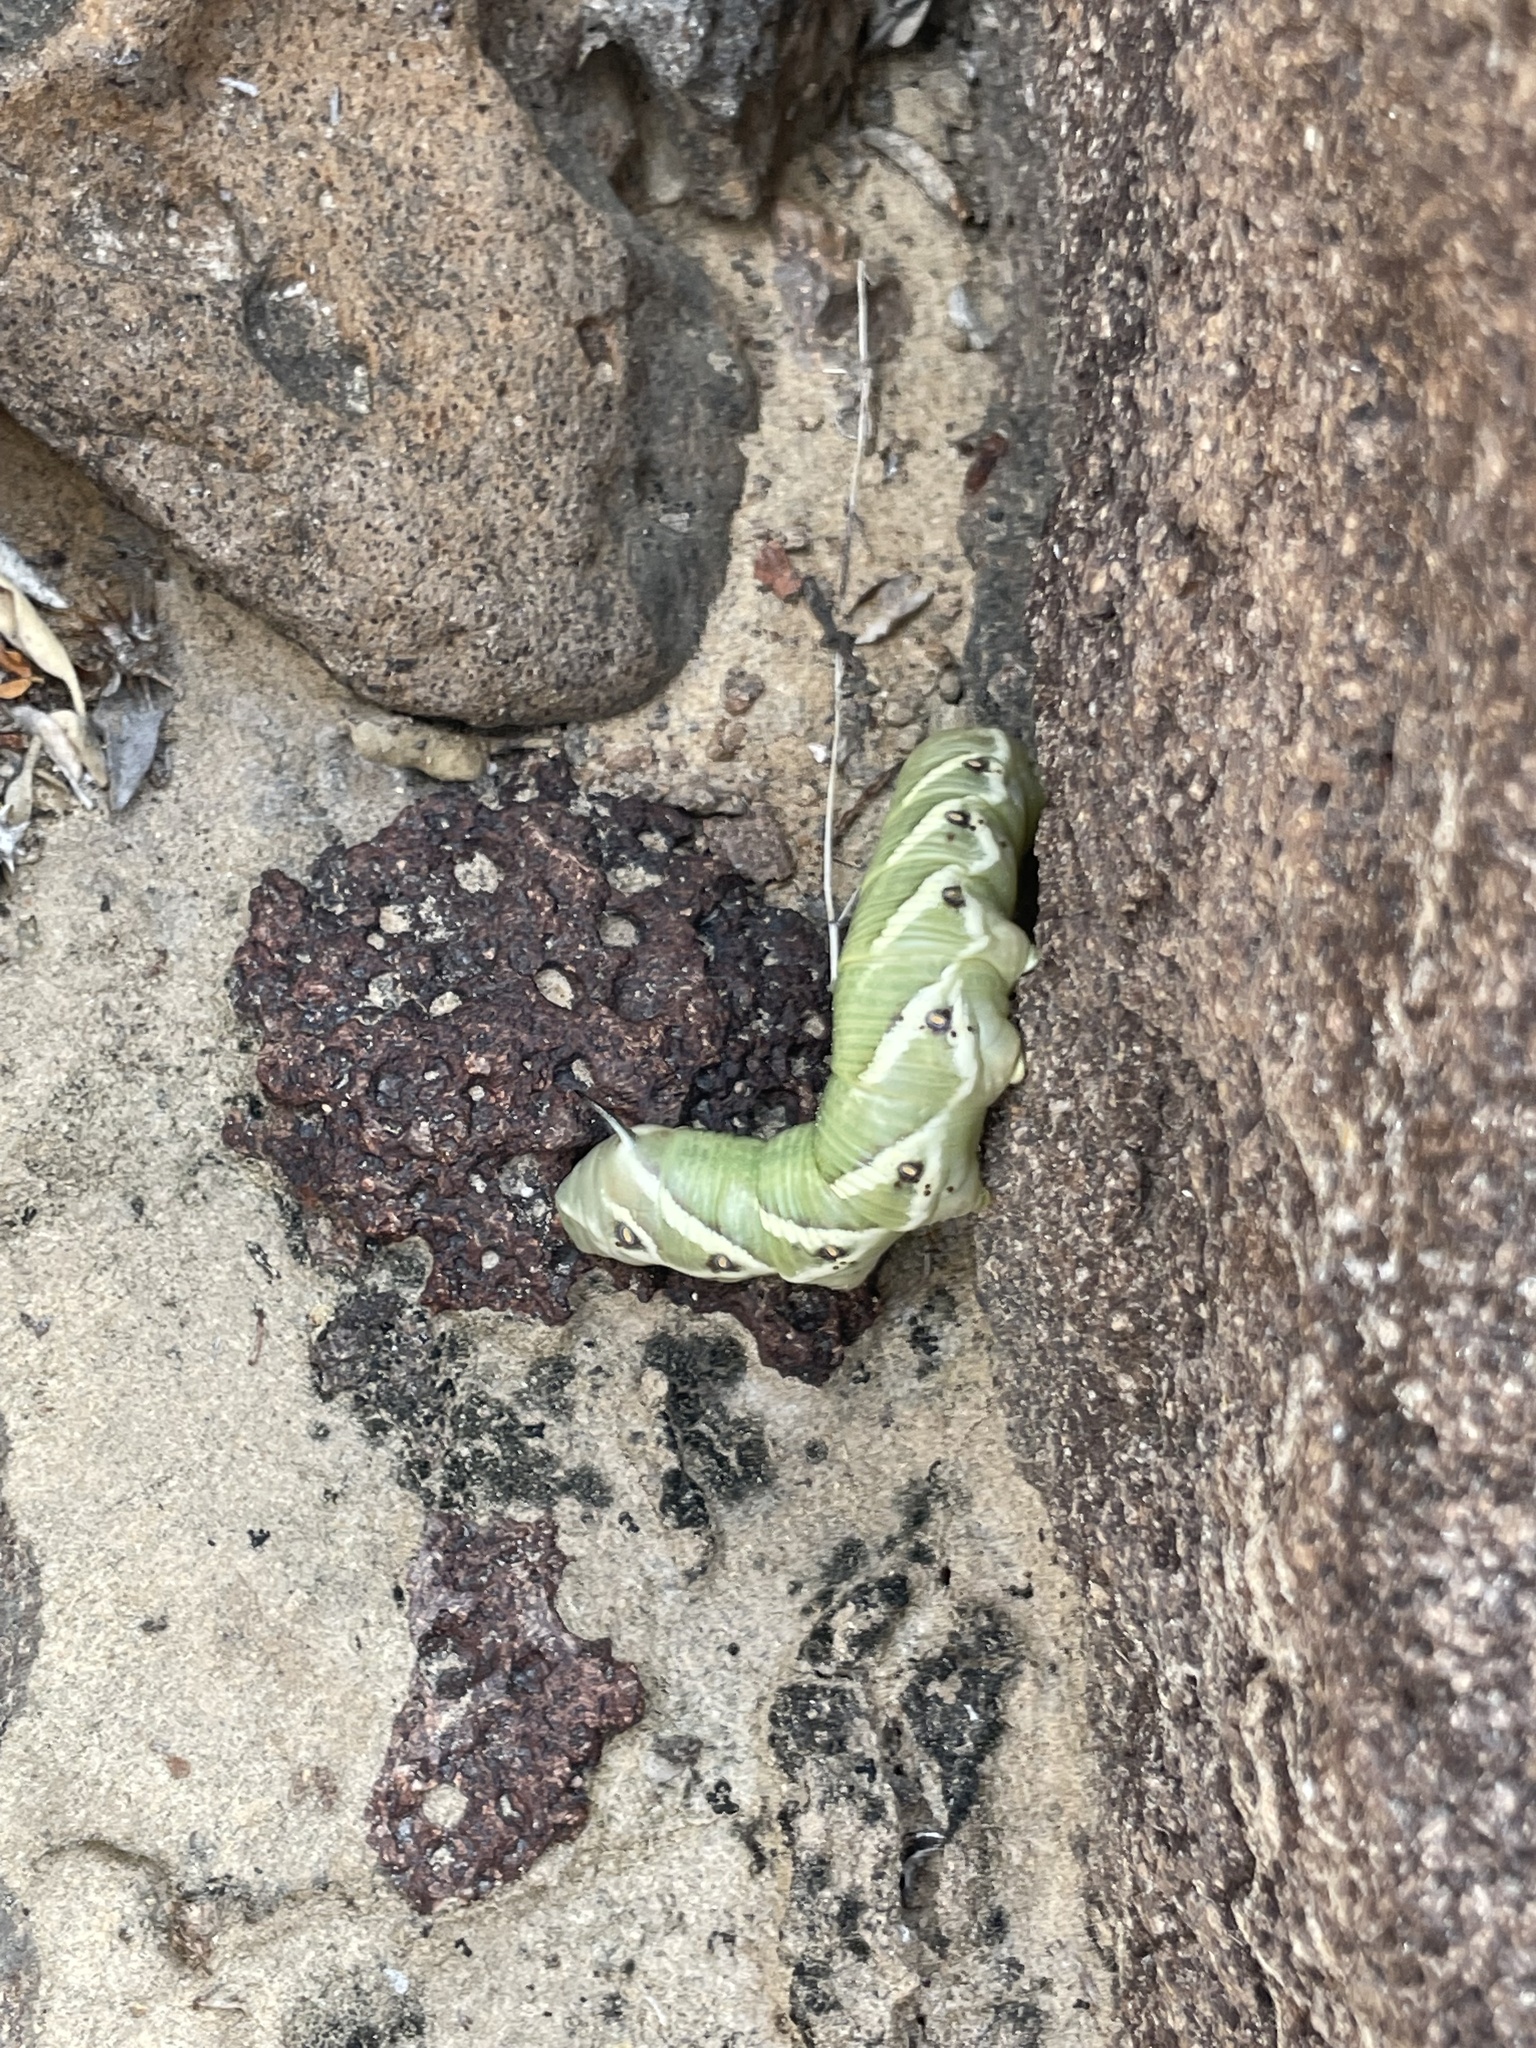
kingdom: Animalia
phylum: Arthropoda
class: Insecta
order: Lepidoptera
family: Sphingidae
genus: Manduca
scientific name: Manduca quinquemaculatus
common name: Five-spotted hawk-moth
